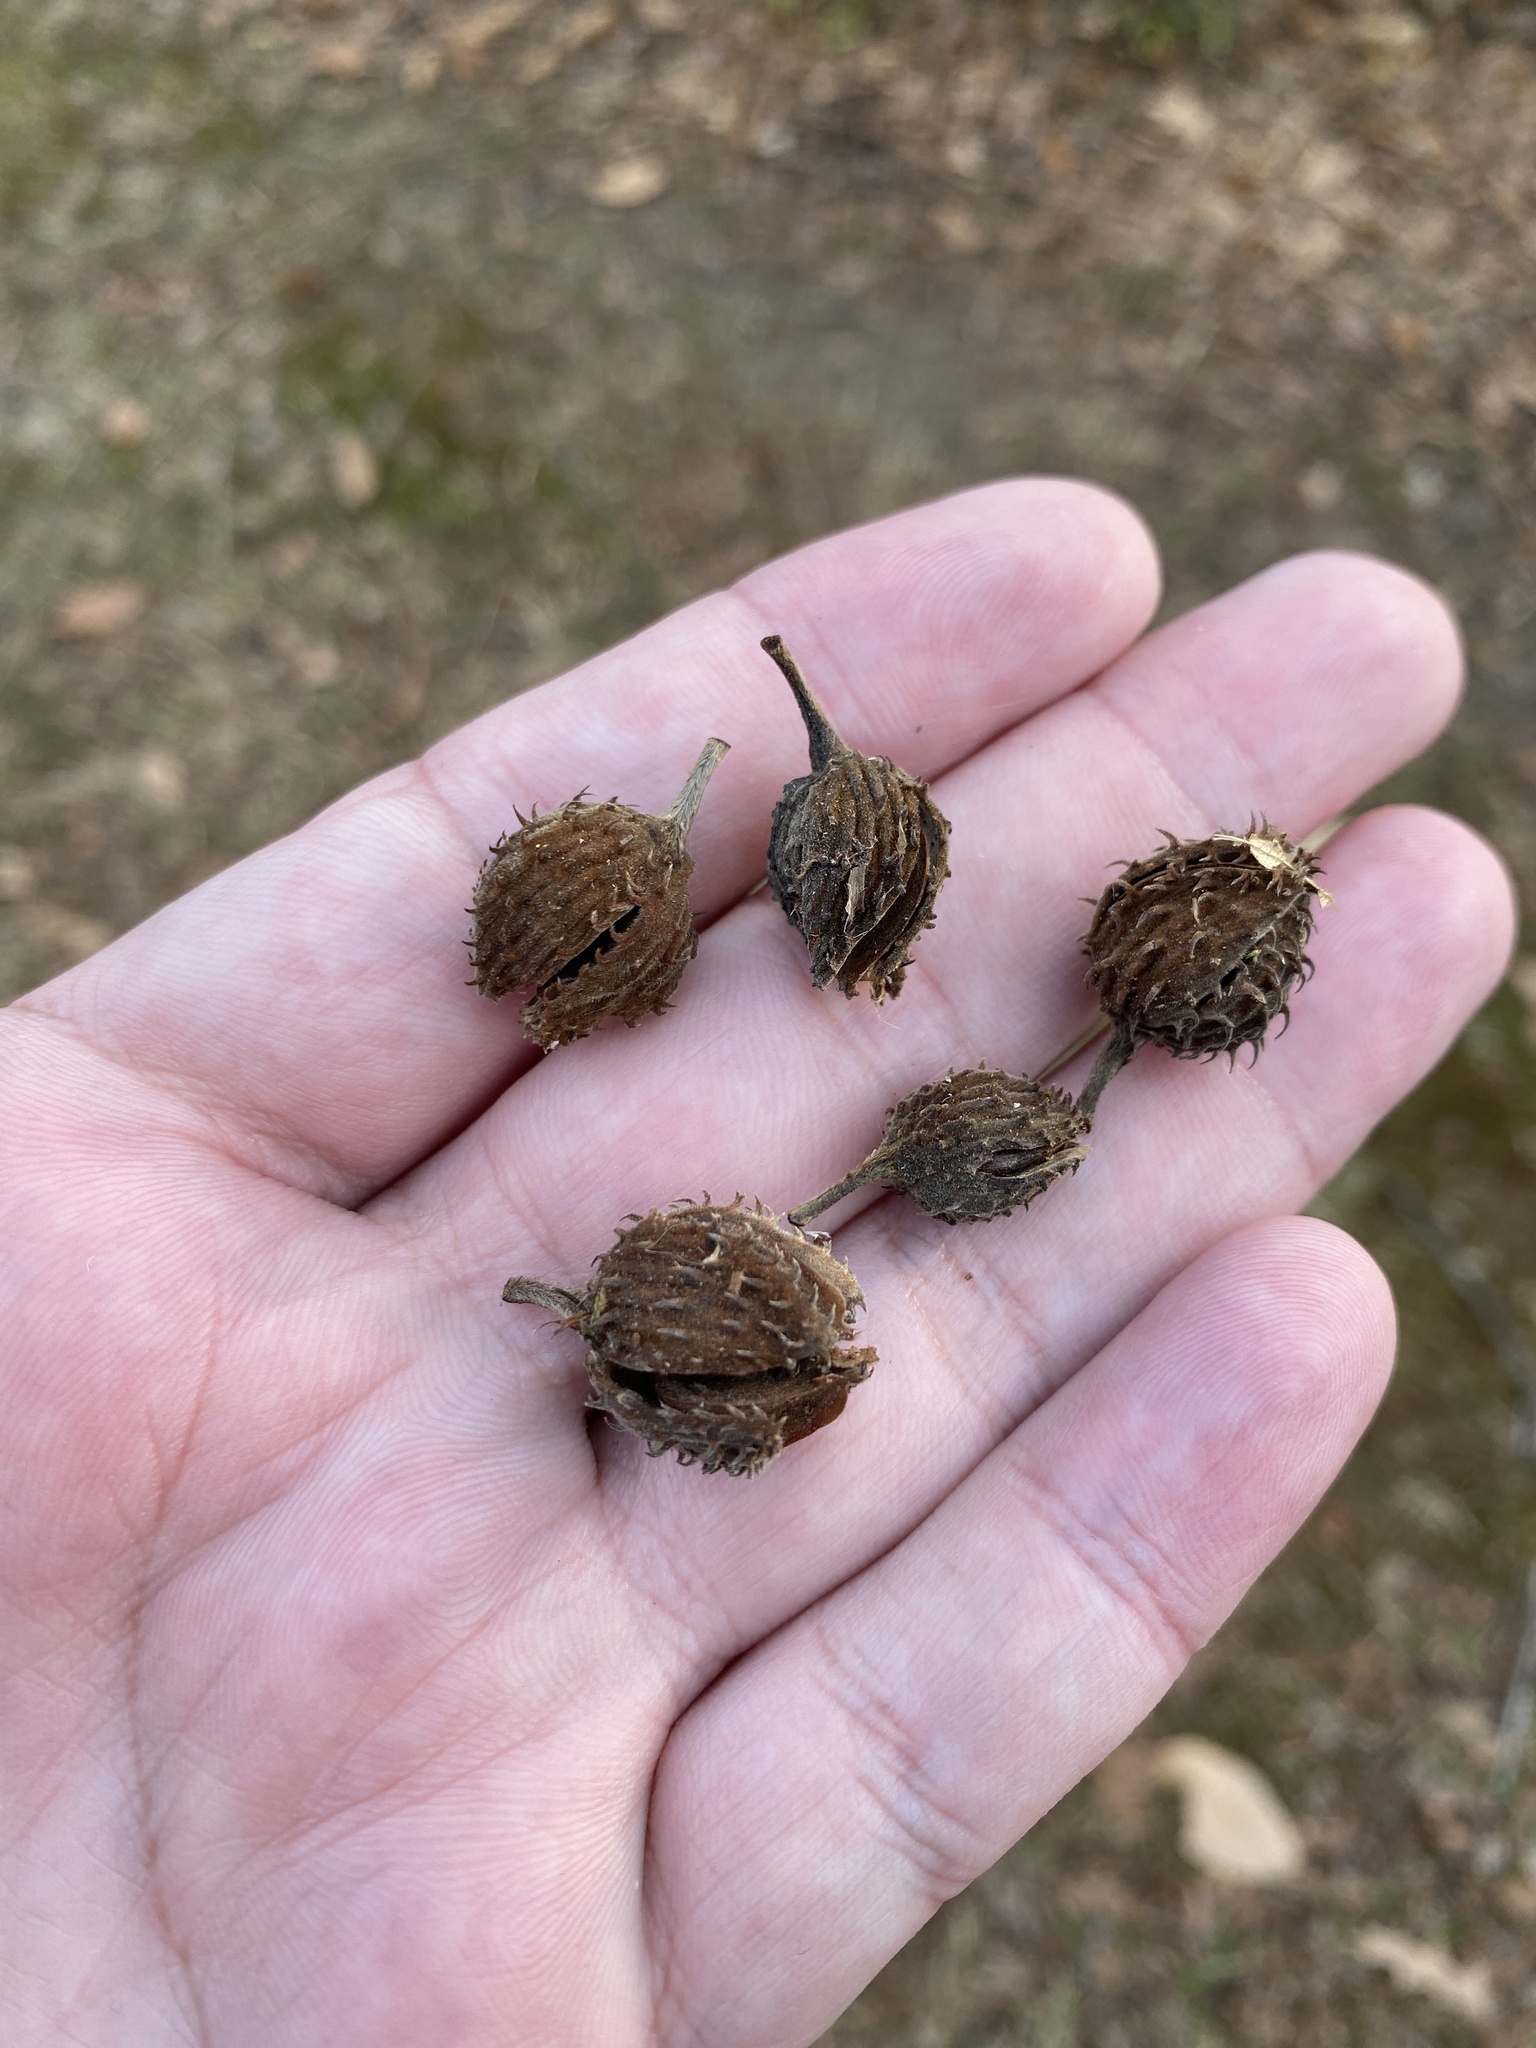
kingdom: Plantae
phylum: Tracheophyta
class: Magnoliopsida
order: Fagales
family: Fagaceae
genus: Fagus
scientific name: Fagus grandifolia
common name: American beech
